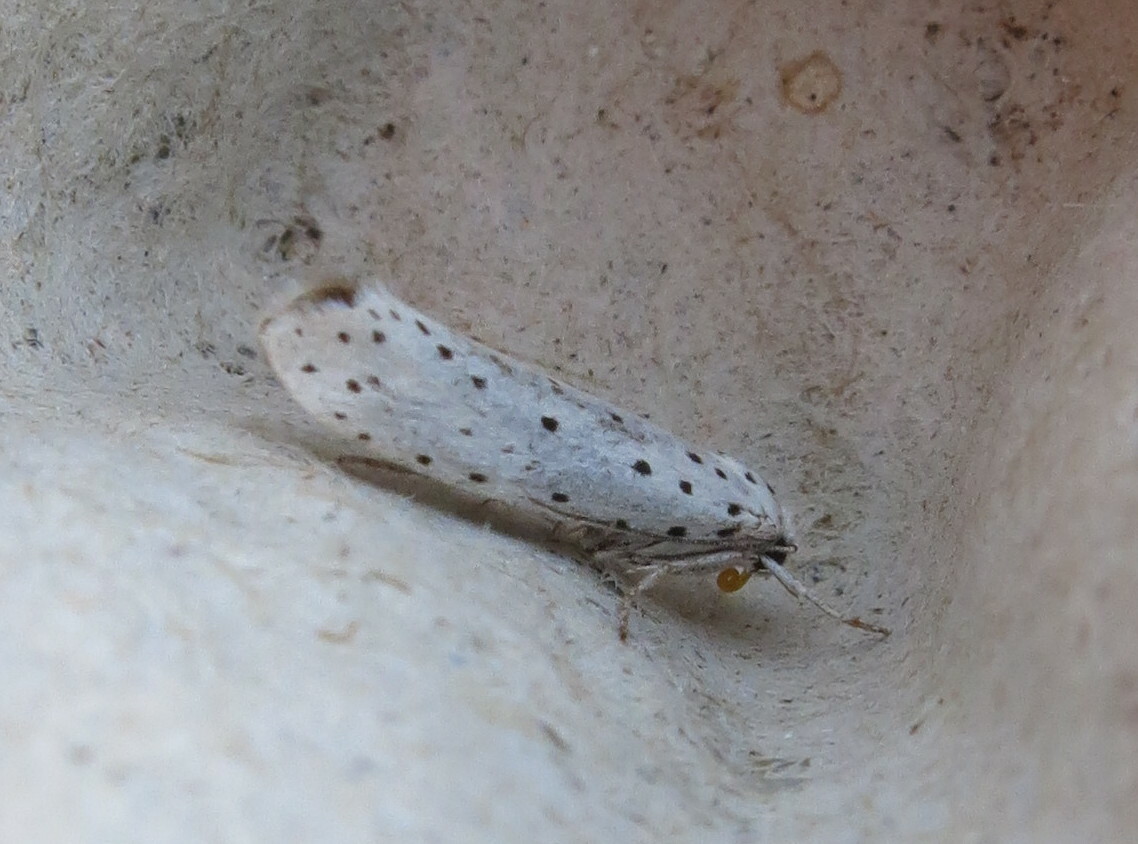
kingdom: Animalia
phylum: Arthropoda
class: Insecta
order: Lepidoptera
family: Yponomeutidae
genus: Yponomeuta
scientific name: Yponomeuta
